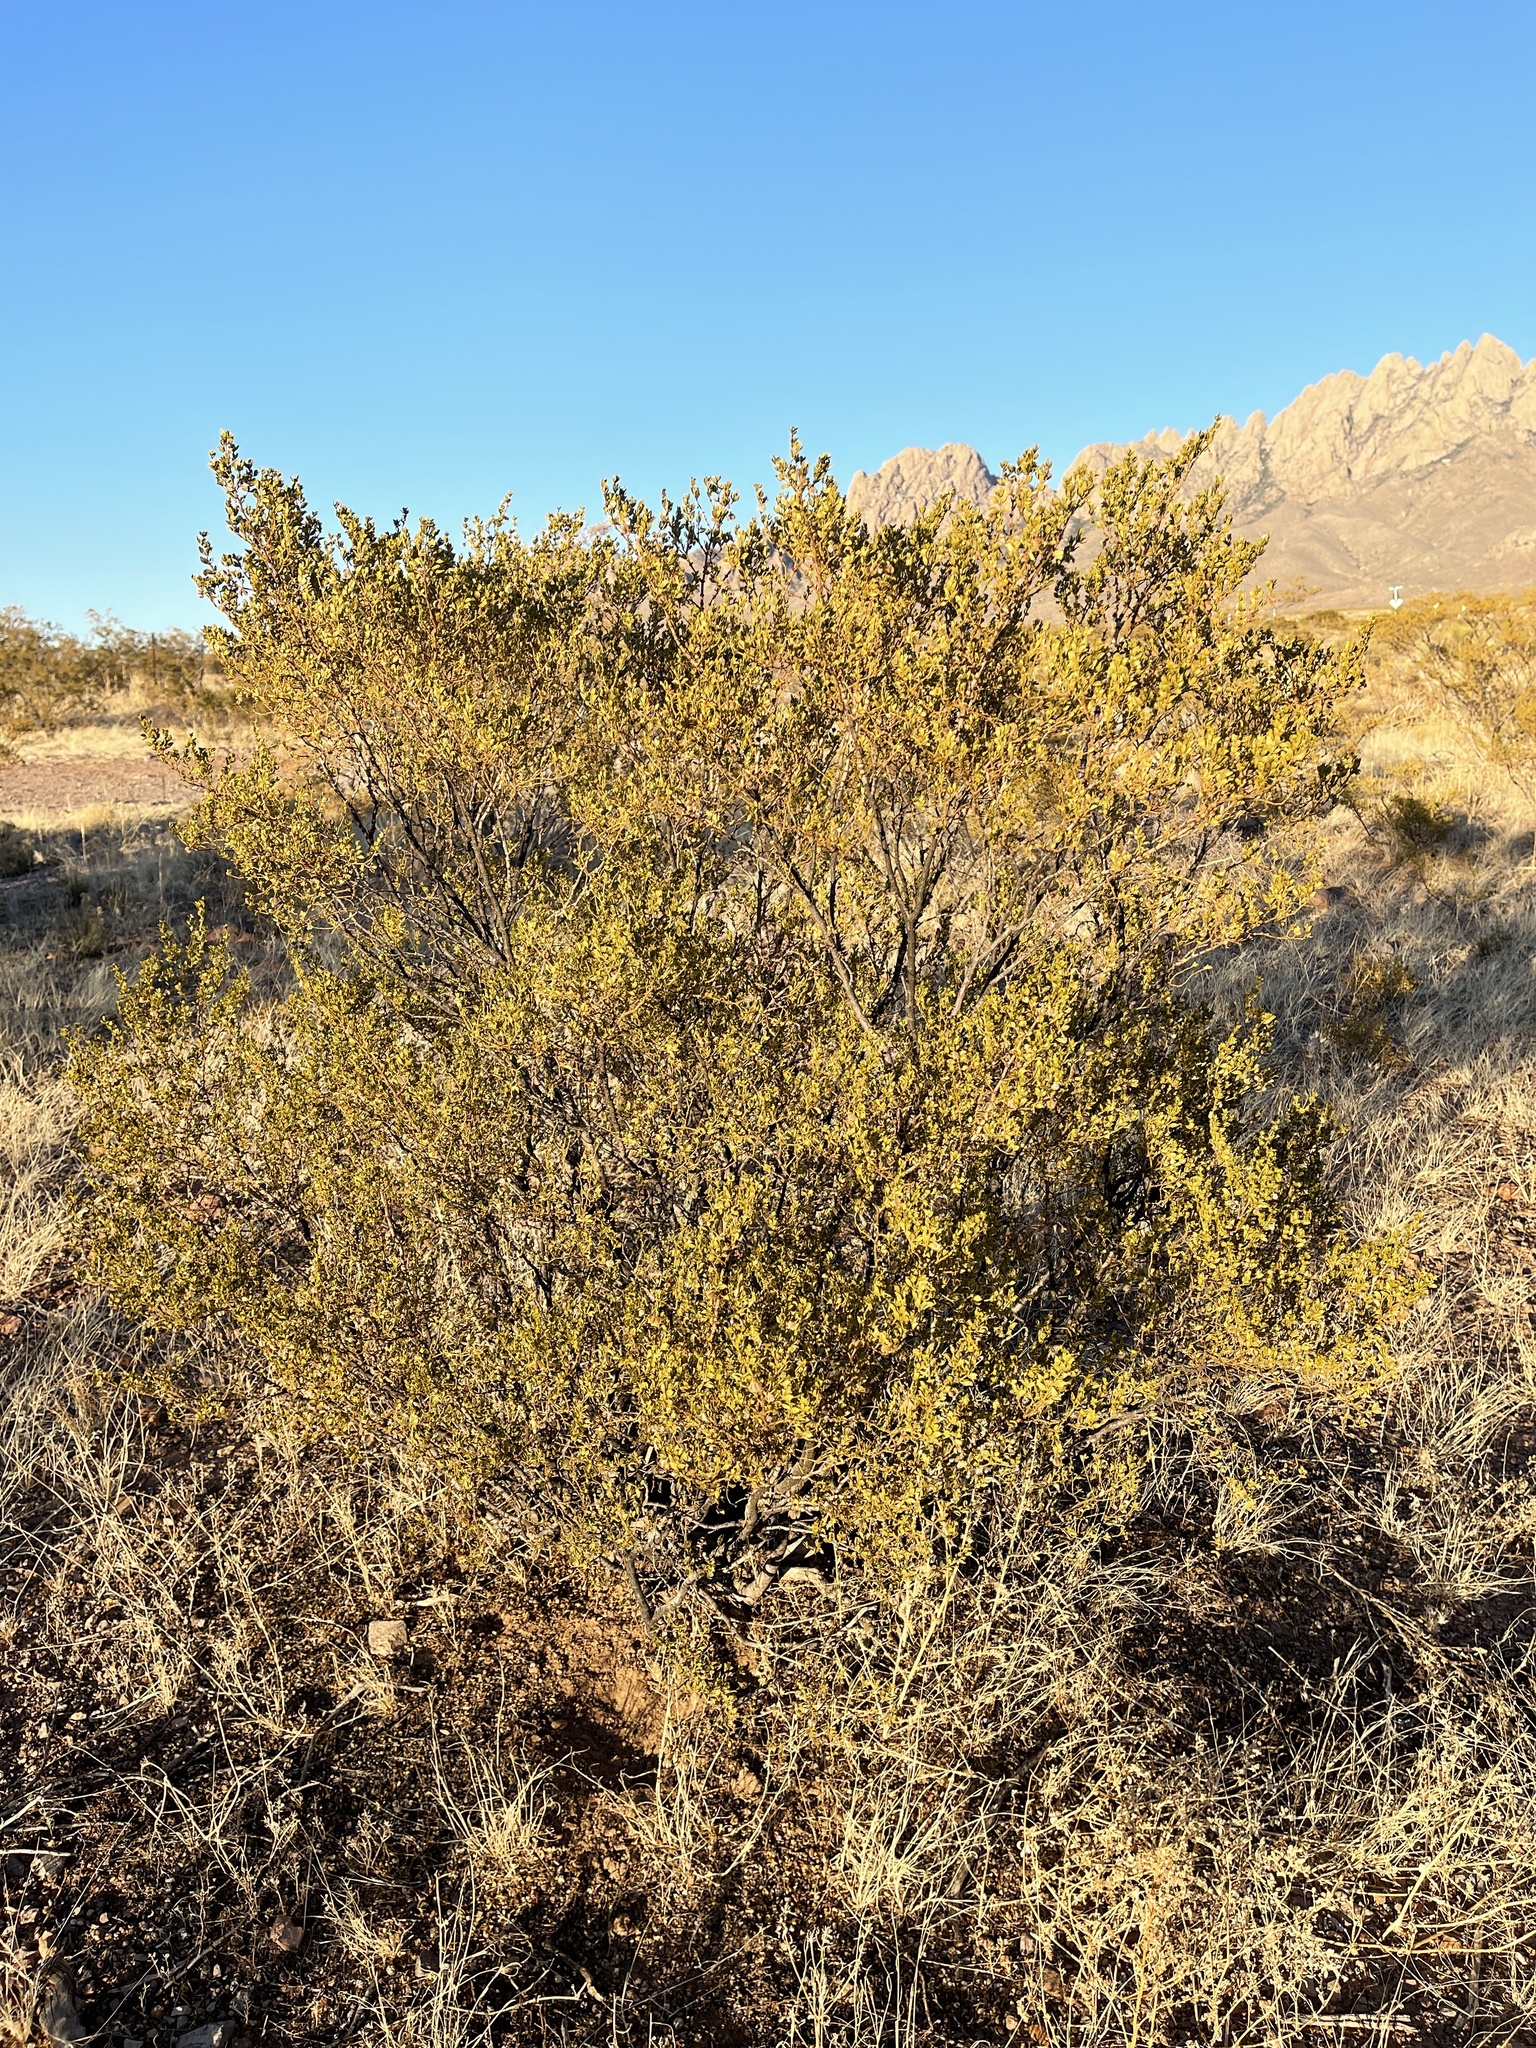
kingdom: Plantae
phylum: Tracheophyta
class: Magnoliopsida
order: Zygophyllales
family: Zygophyllaceae
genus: Larrea
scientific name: Larrea tridentata
